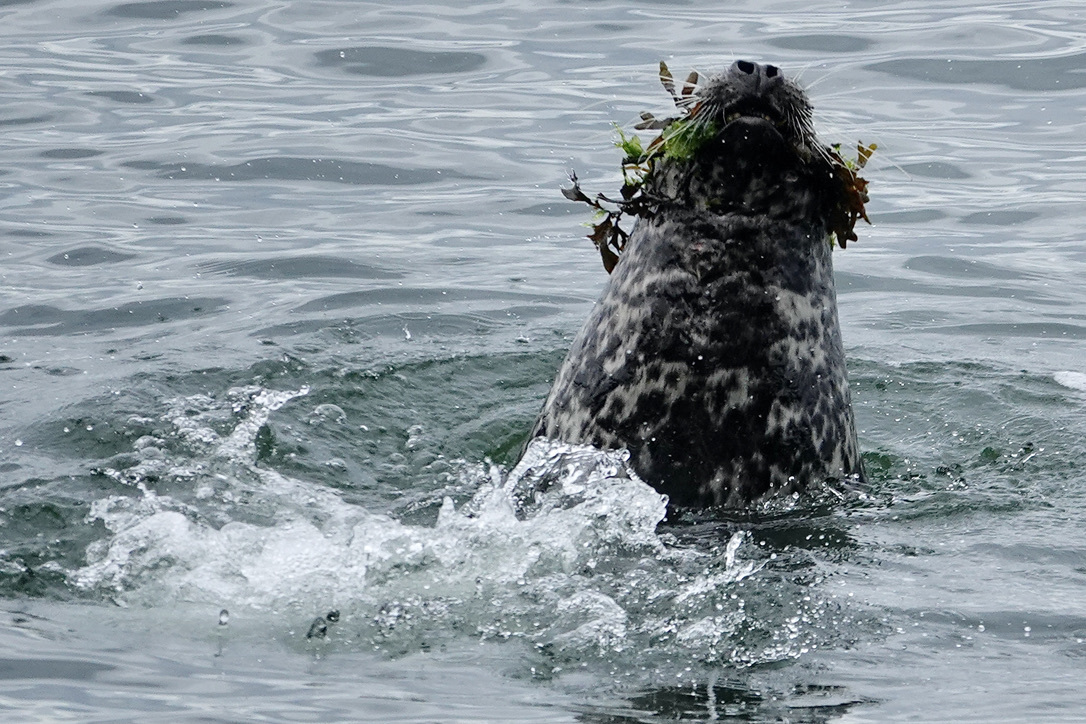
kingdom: Animalia
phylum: Chordata
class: Mammalia
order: Carnivora
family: Phocidae
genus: Phoca
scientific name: Phoca vitulina
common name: Harbor seal
